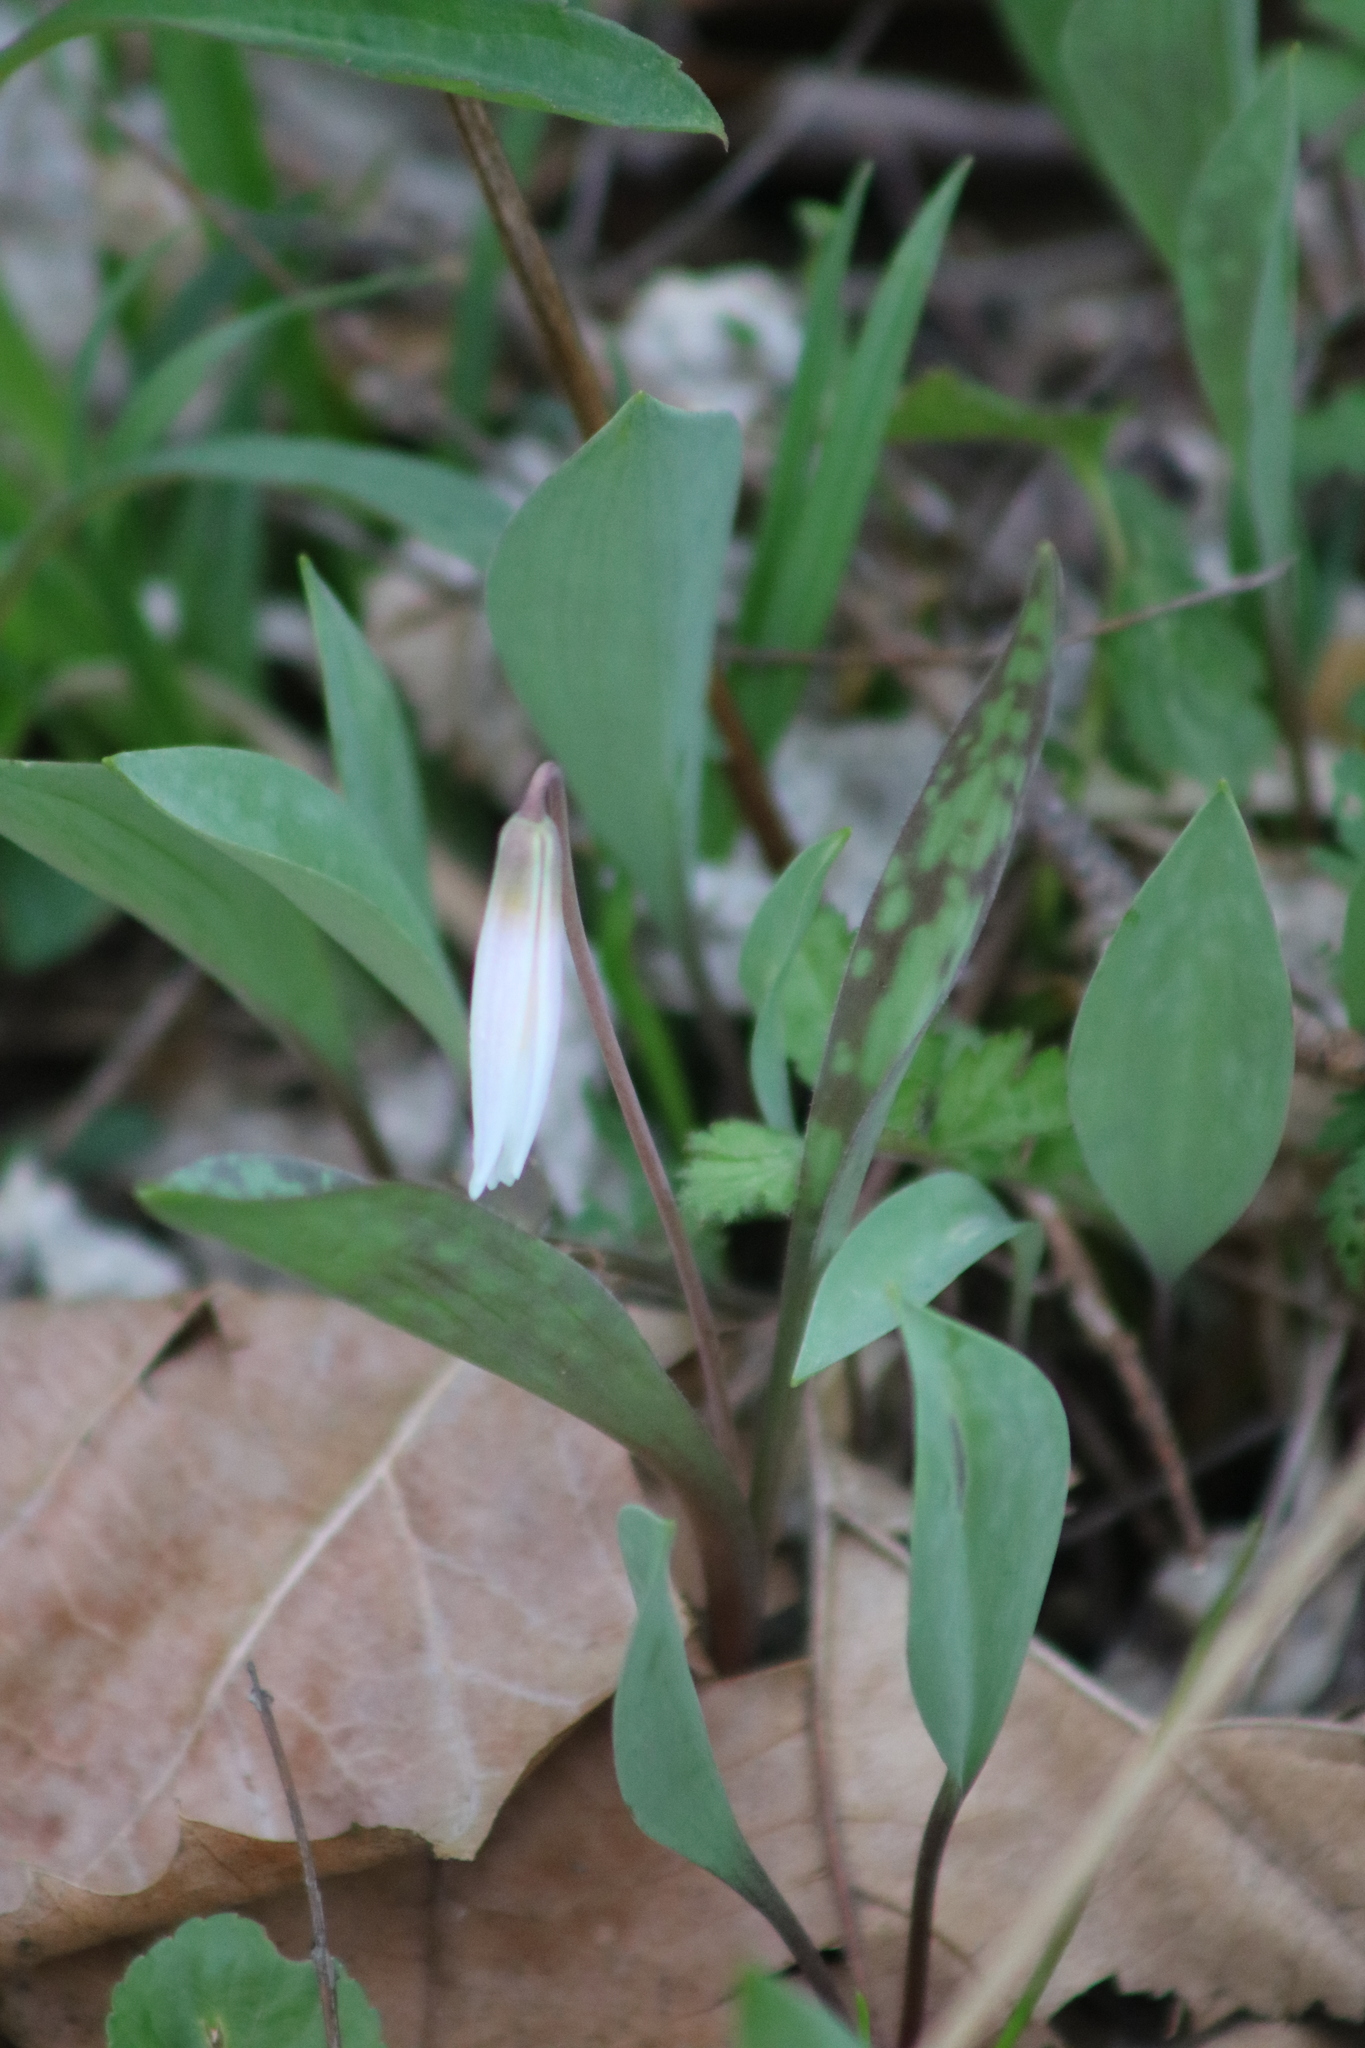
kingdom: Plantae
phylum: Tracheophyta
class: Liliopsida
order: Liliales
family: Liliaceae
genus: Erythronium
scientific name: Erythronium albidum
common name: White trout-lily
